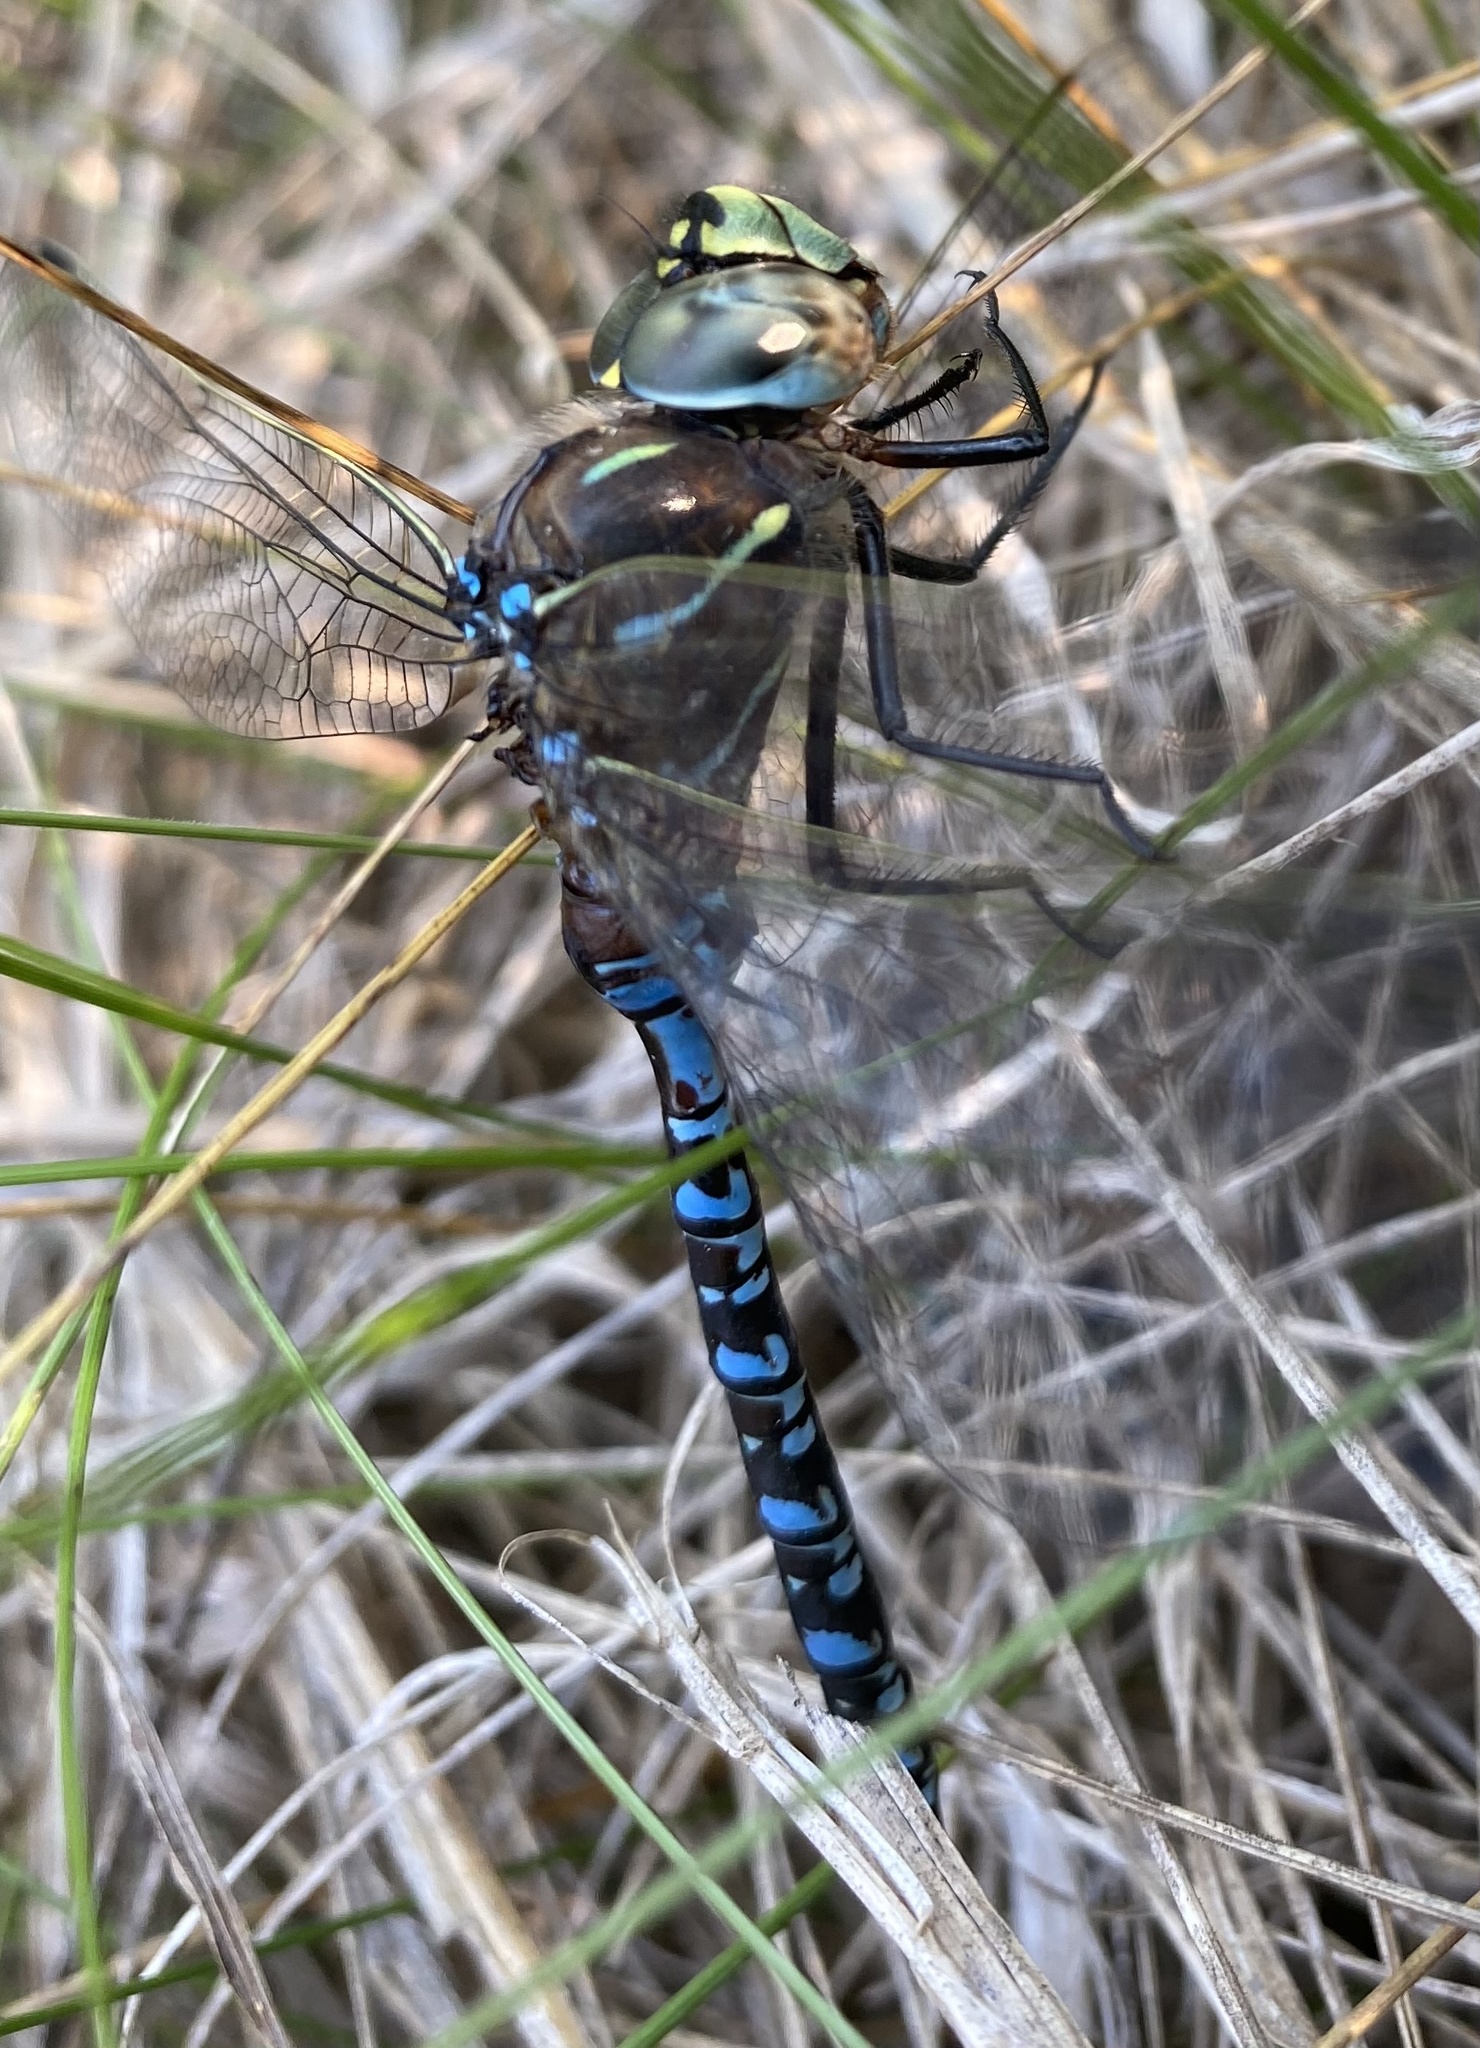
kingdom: Animalia
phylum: Arthropoda
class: Insecta
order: Odonata
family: Aeshnidae
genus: Aeshna
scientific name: Aeshna interrupta
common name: Variable darner
